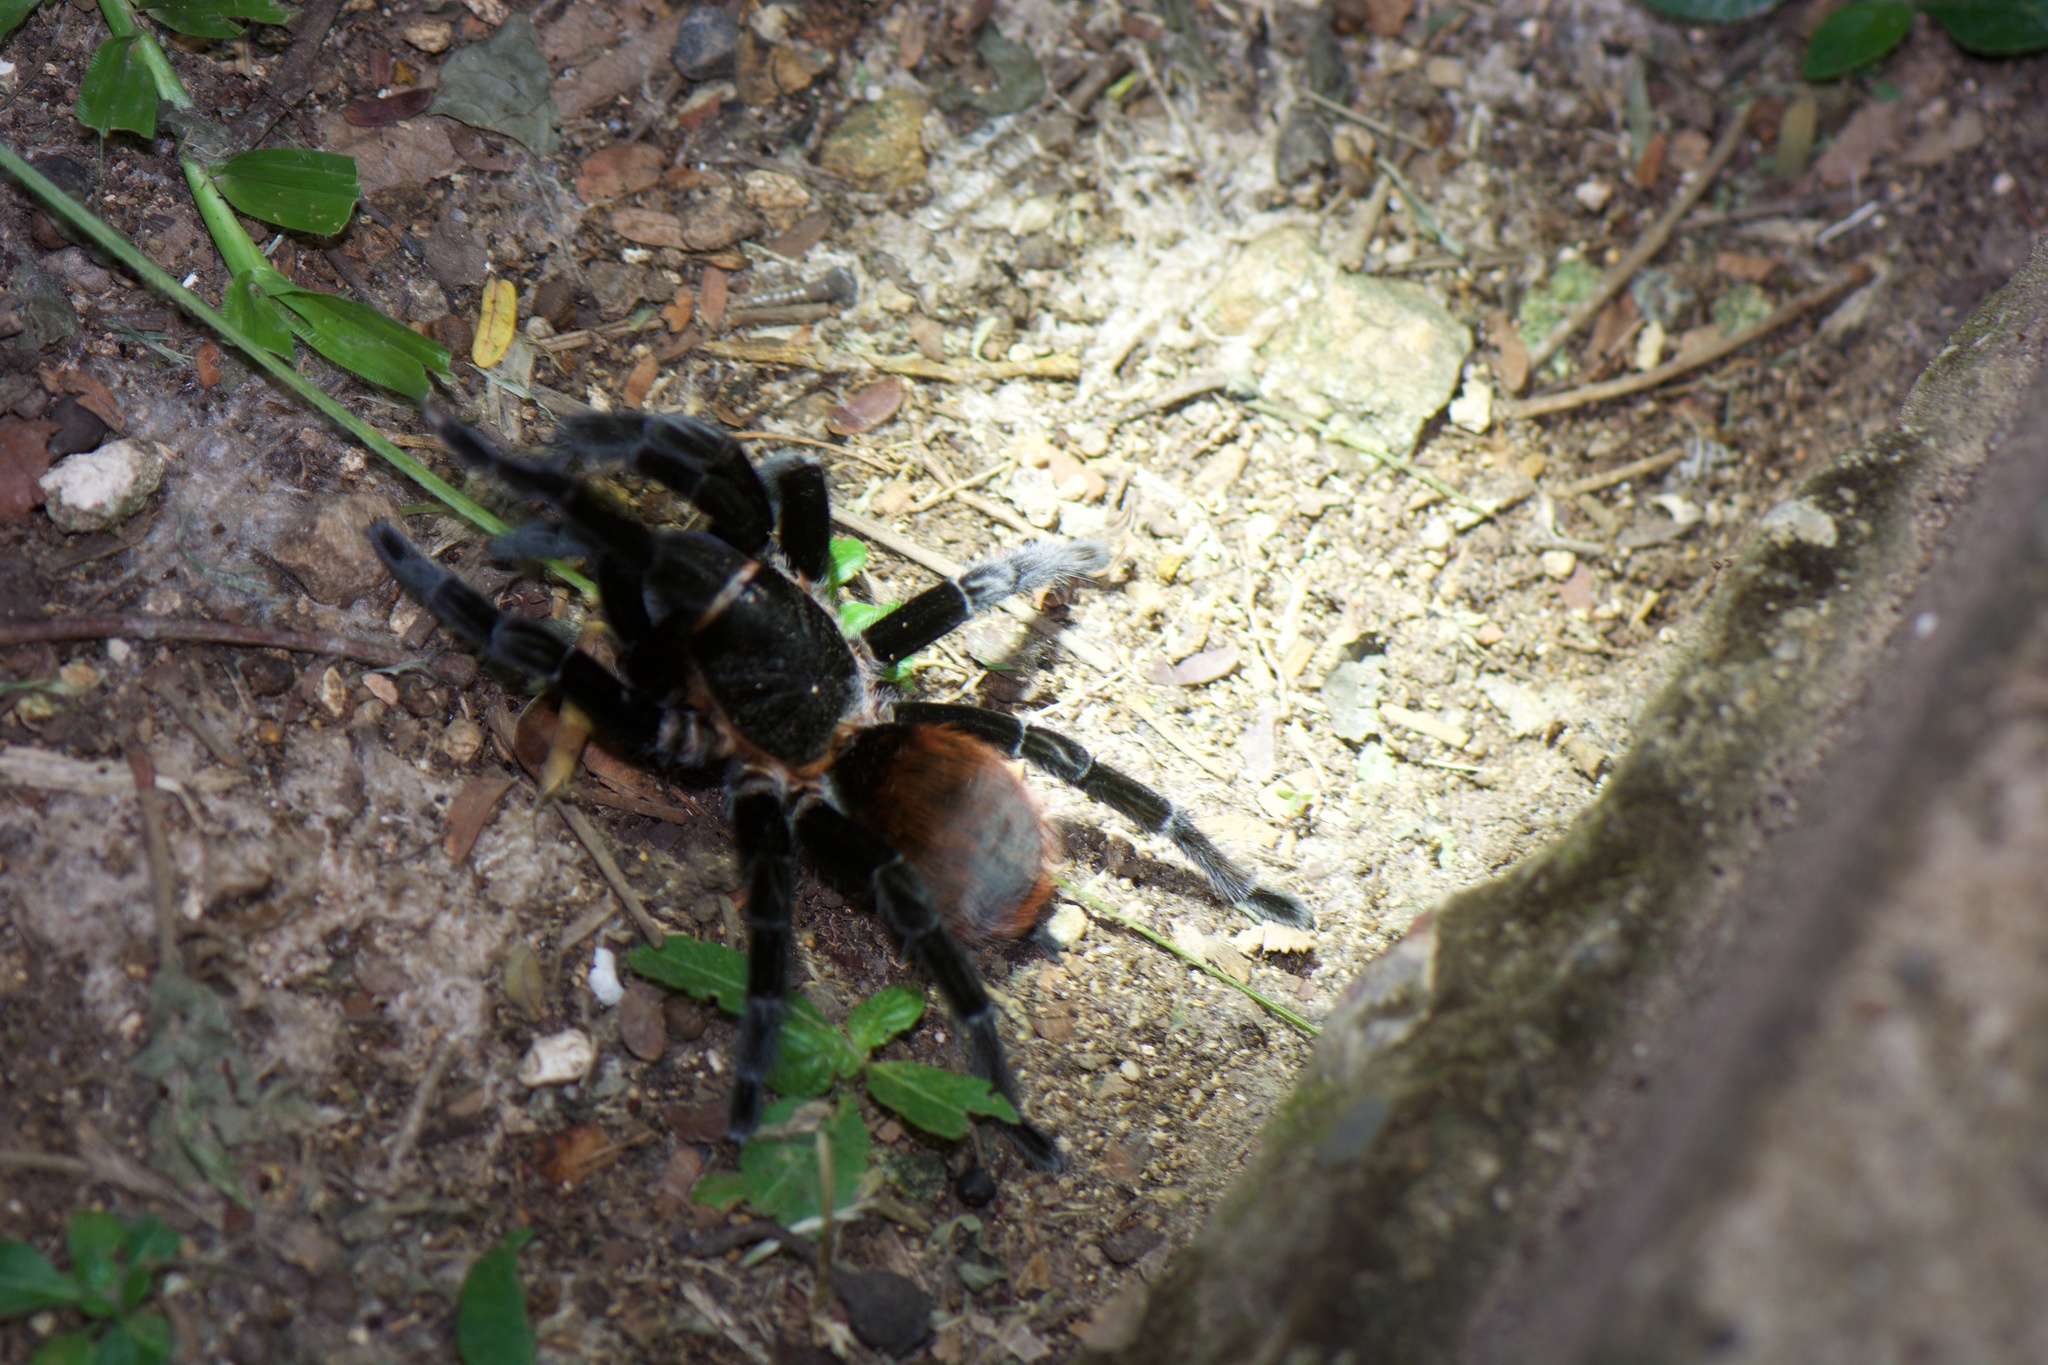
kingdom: Animalia
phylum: Arthropoda
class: Arachnida
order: Araneae
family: Theraphosidae
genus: Tliltocatl
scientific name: Tliltocatl vagans
